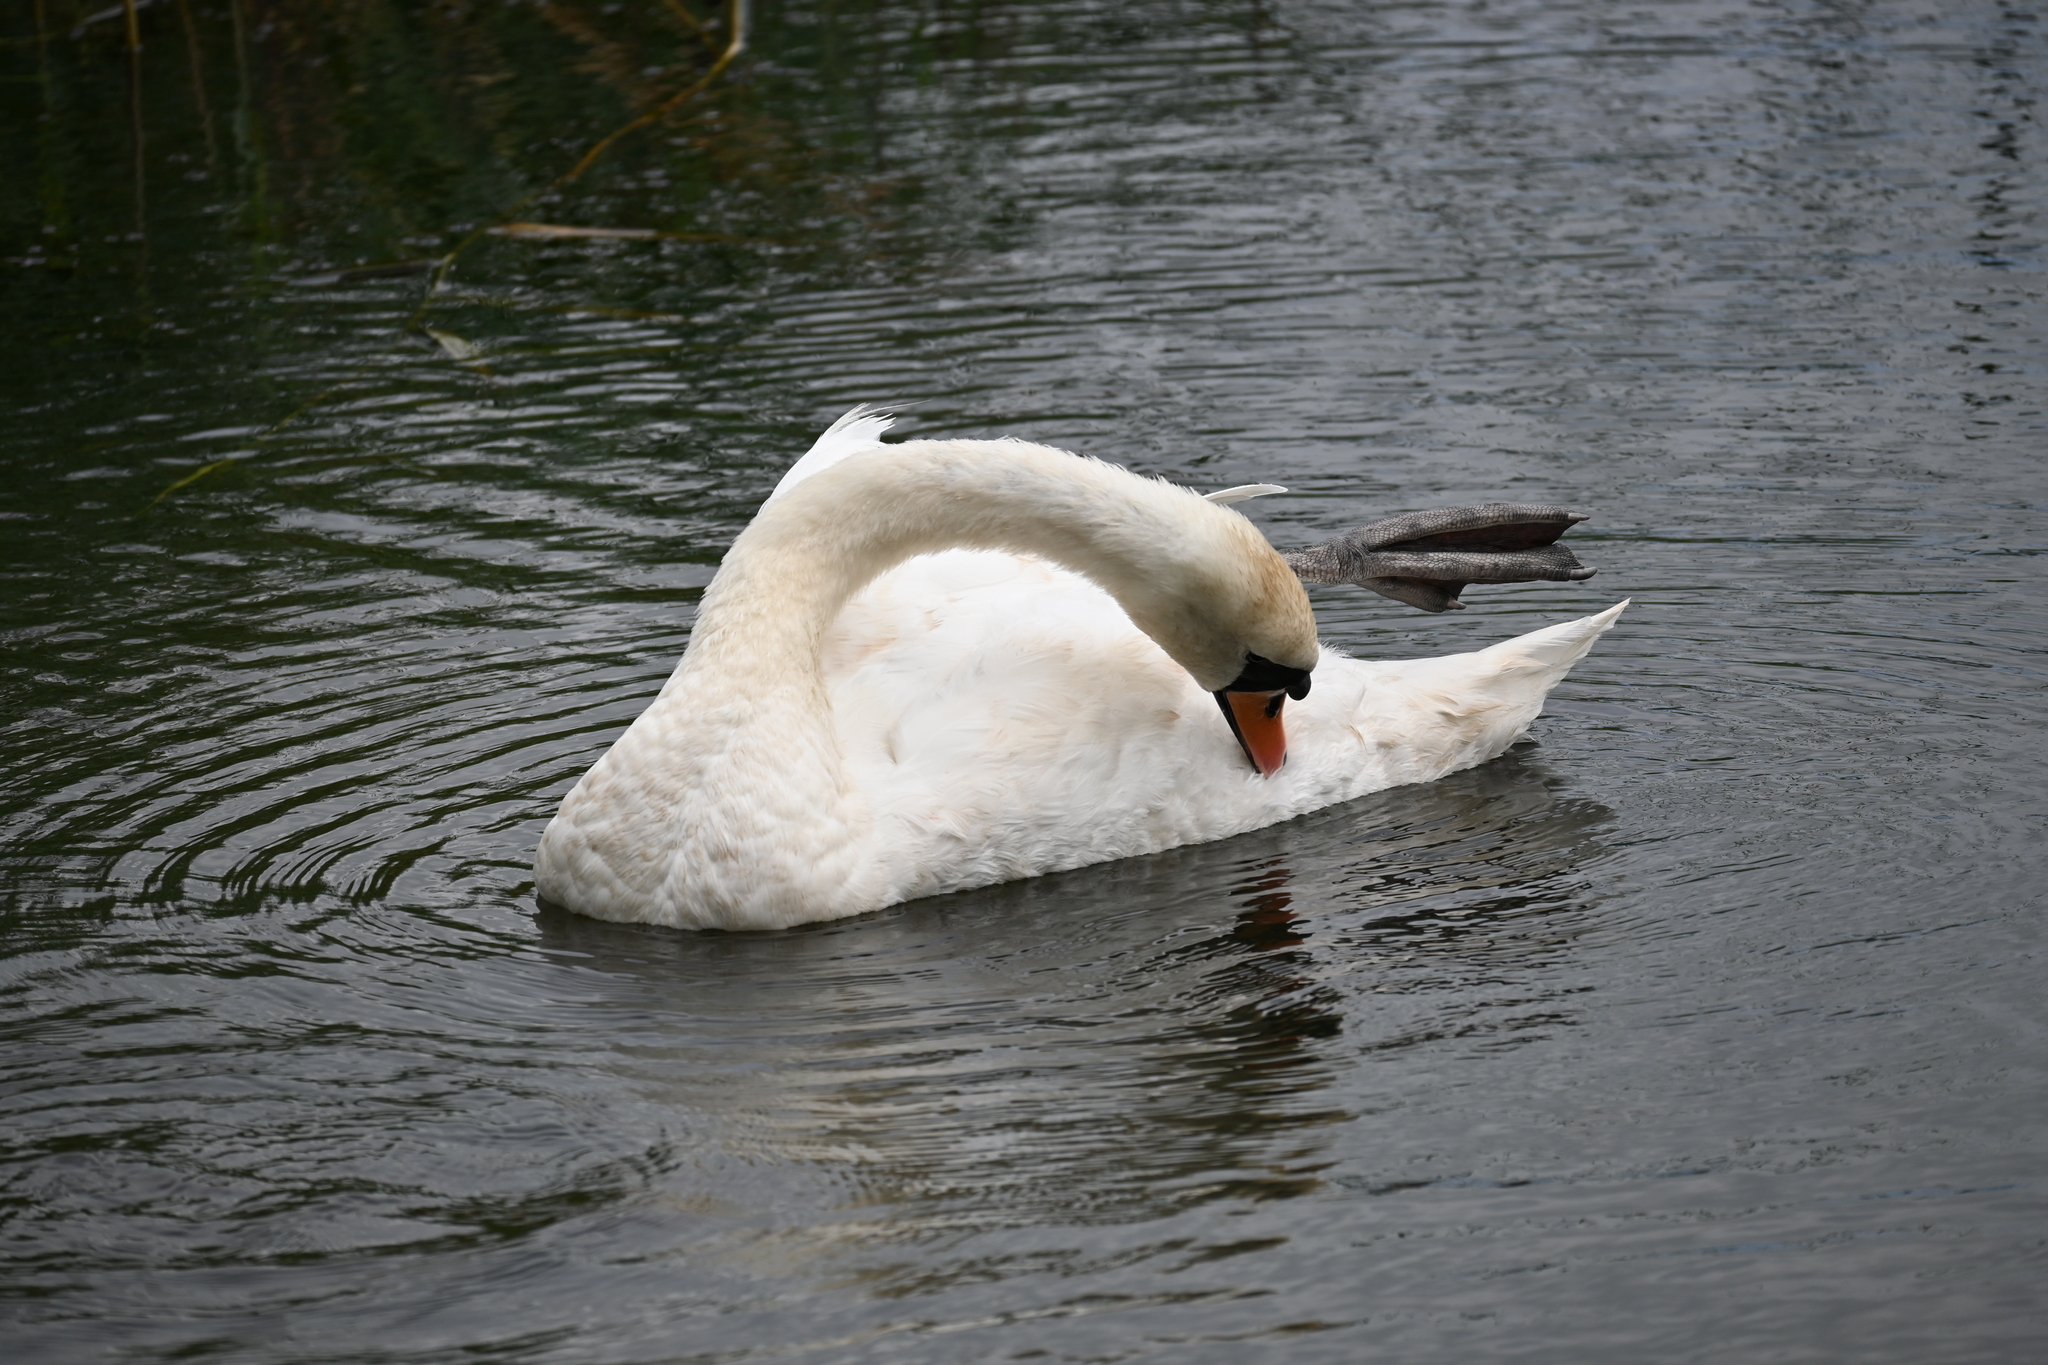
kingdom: Animalia
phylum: Chordata
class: Aves
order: Anseriformes
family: Anatidae
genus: Cygnus
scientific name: Cygnus olor
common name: Mute swan
